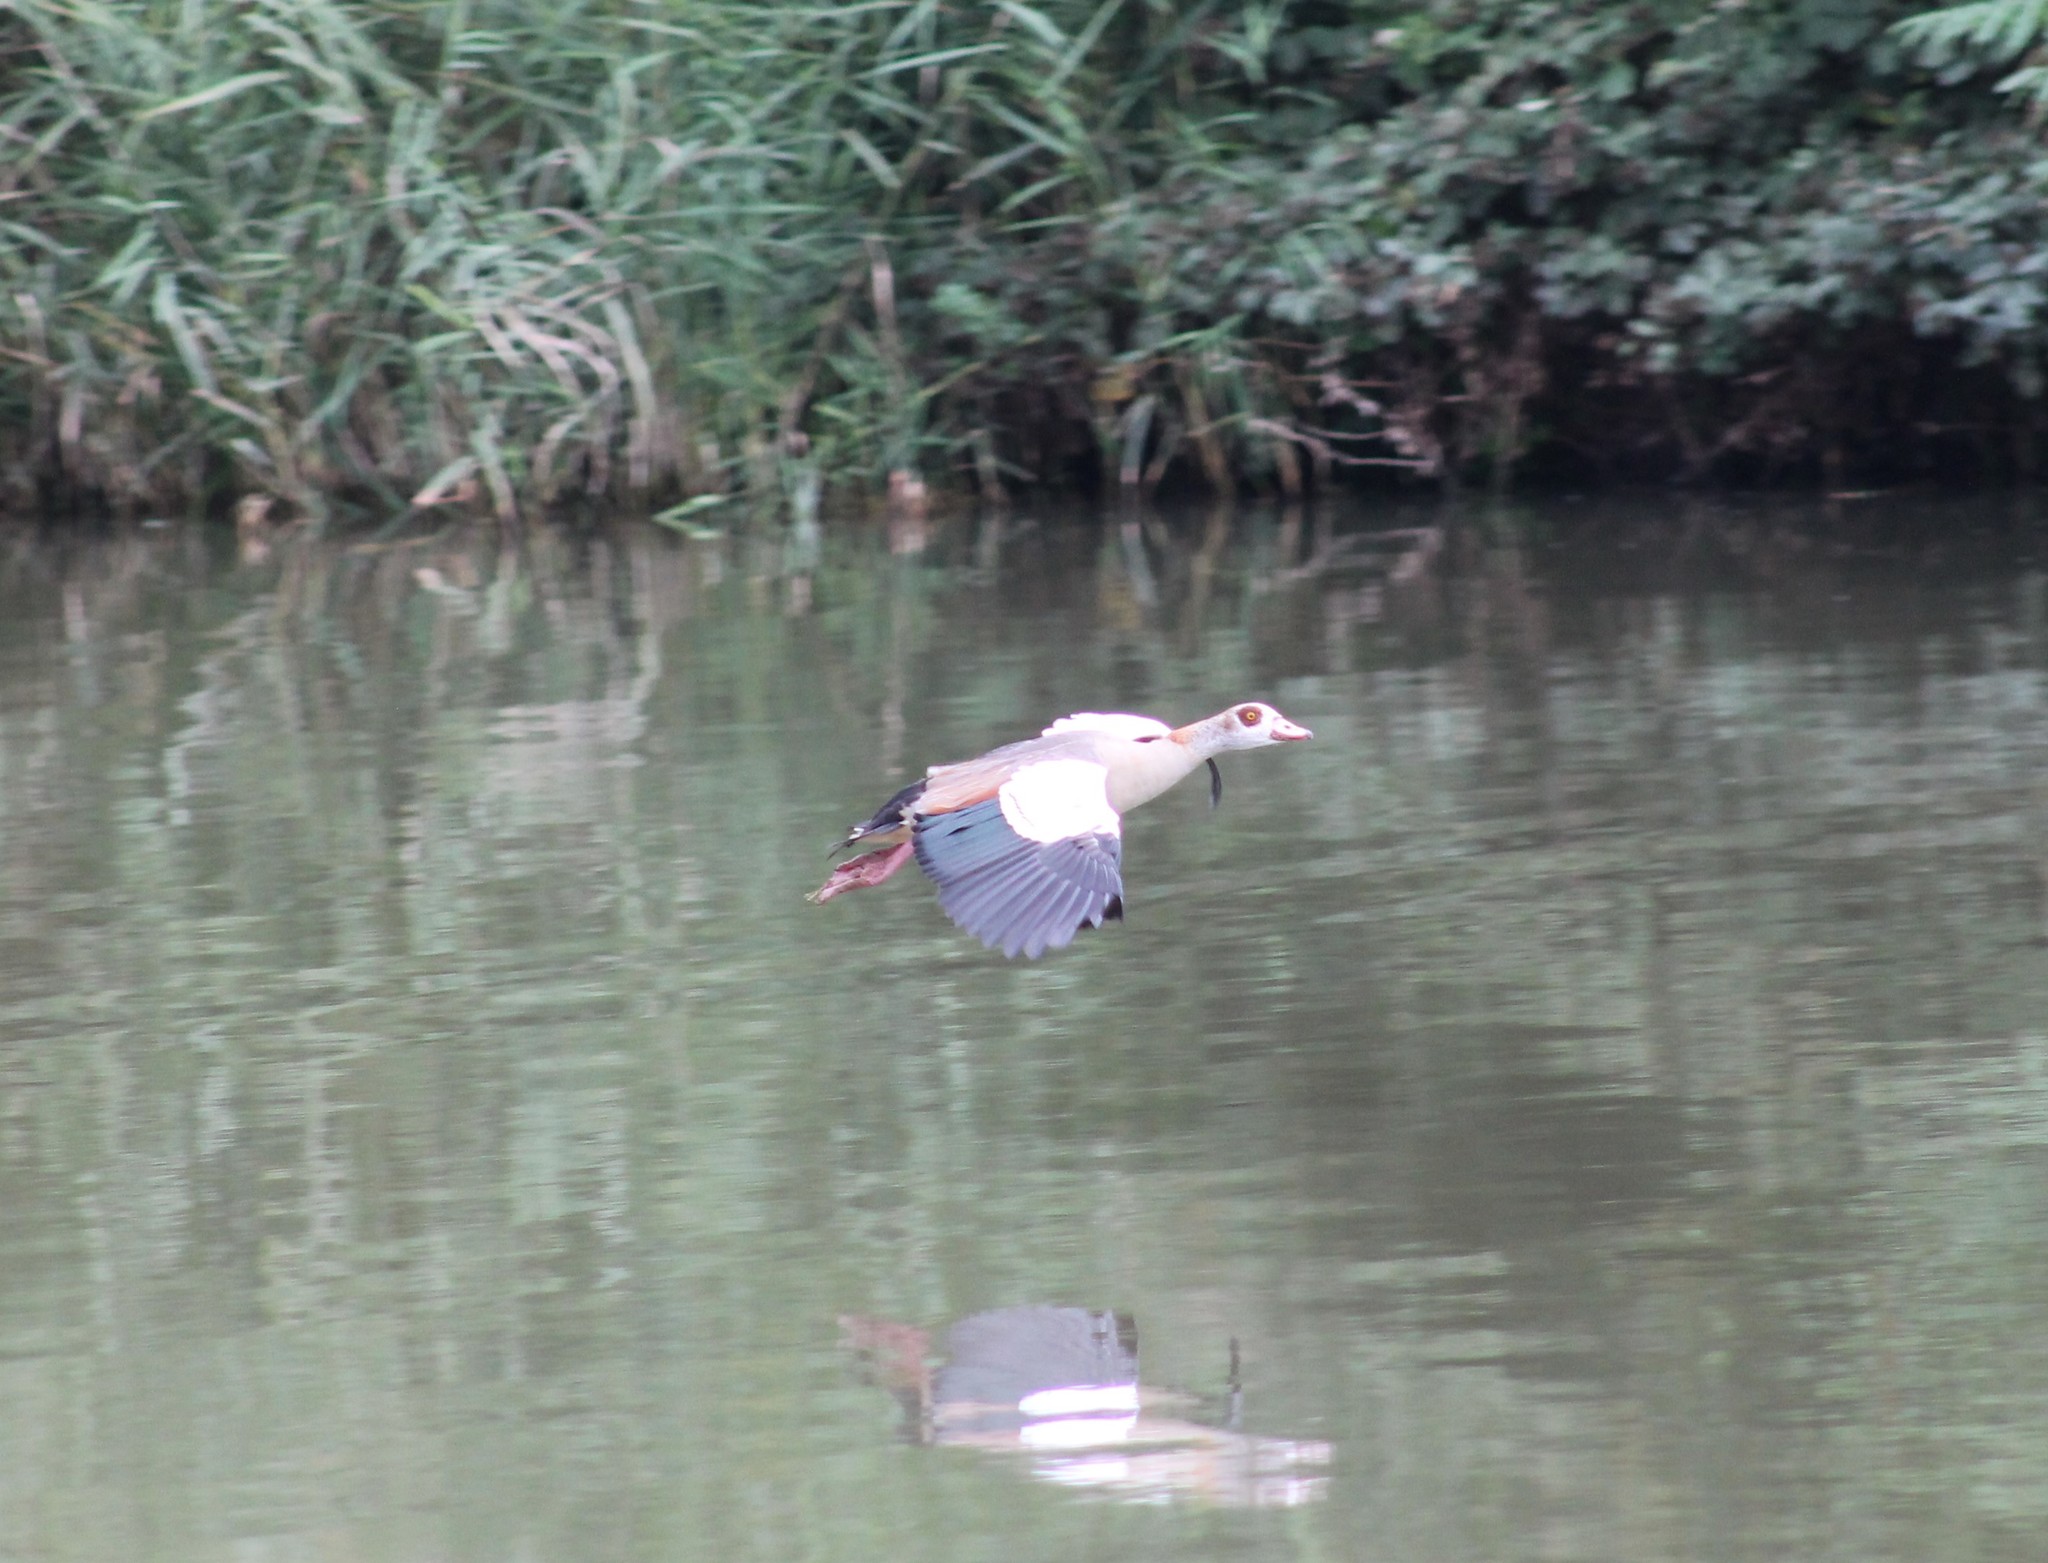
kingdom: Animalia
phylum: Chordata
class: Aves
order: Anseriformes
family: Anatidae
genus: Alopochen
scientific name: Alopochen aegyptiaca
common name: Egyptian goose
